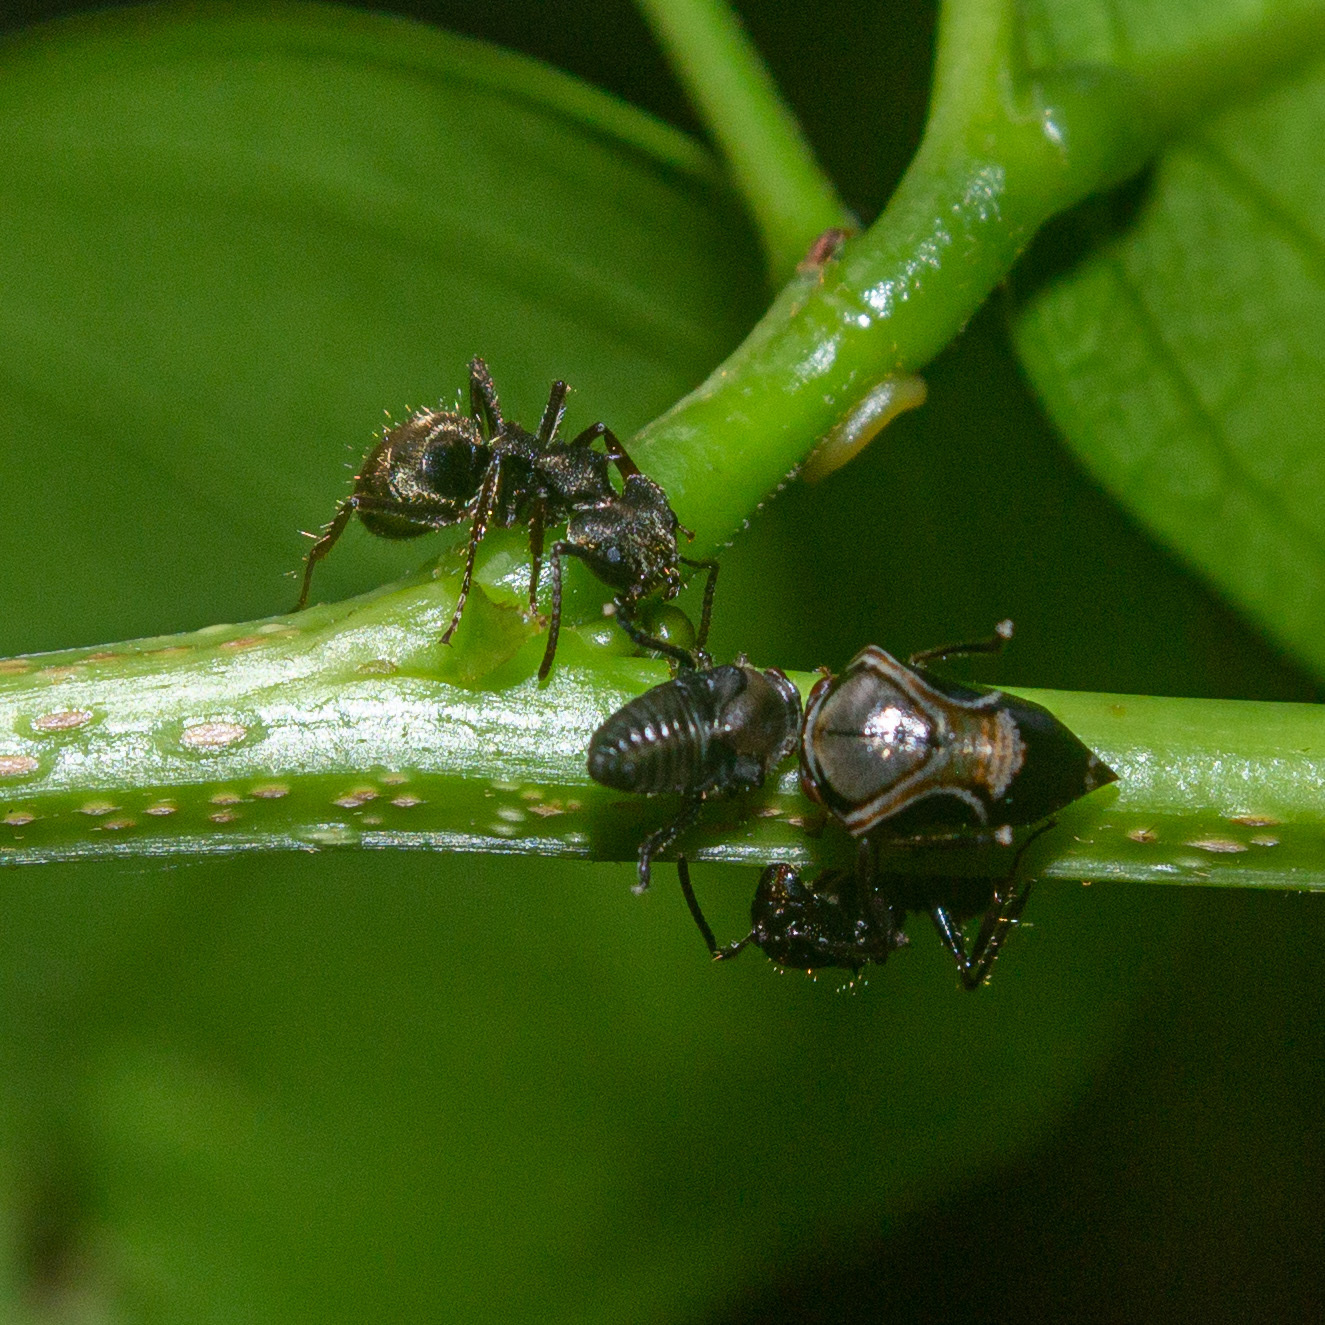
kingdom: Animalia
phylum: Arthropoda
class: Insecta
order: Hymenoptera
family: Formicidae
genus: Dolichoderus
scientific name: Dolichoderus bispinosus
